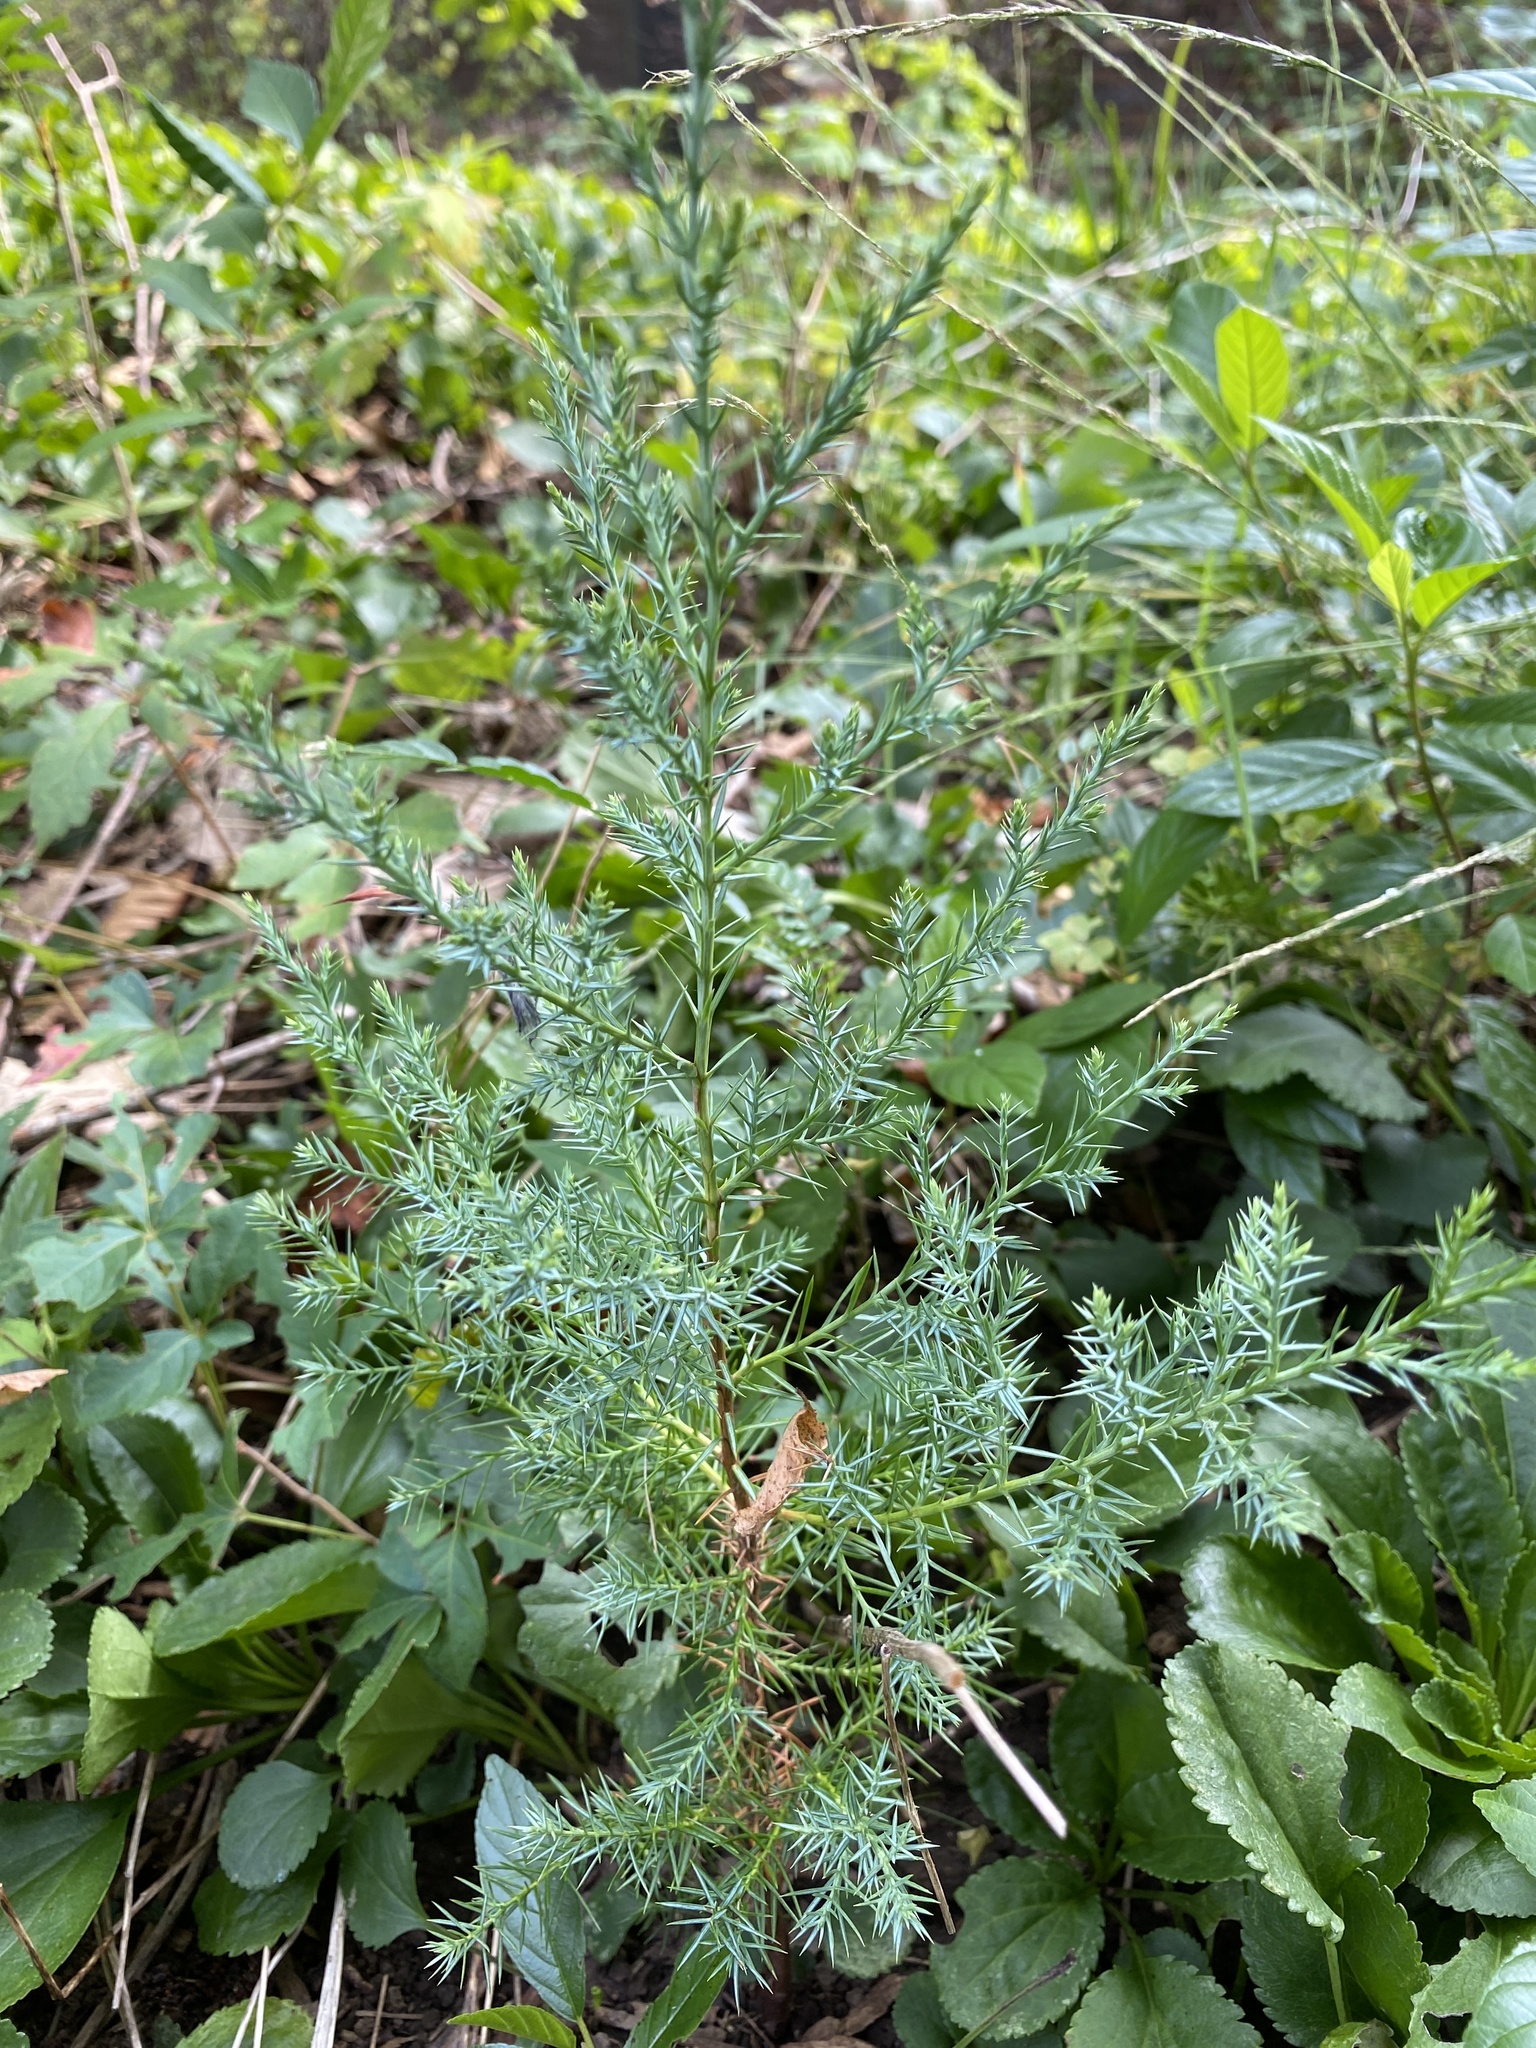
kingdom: Plantae
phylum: Tracheophyta
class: Pinopsida
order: Pinales
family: Cupressaceae
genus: Juniperus
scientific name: Juniperus virginiana
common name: Red juniper
